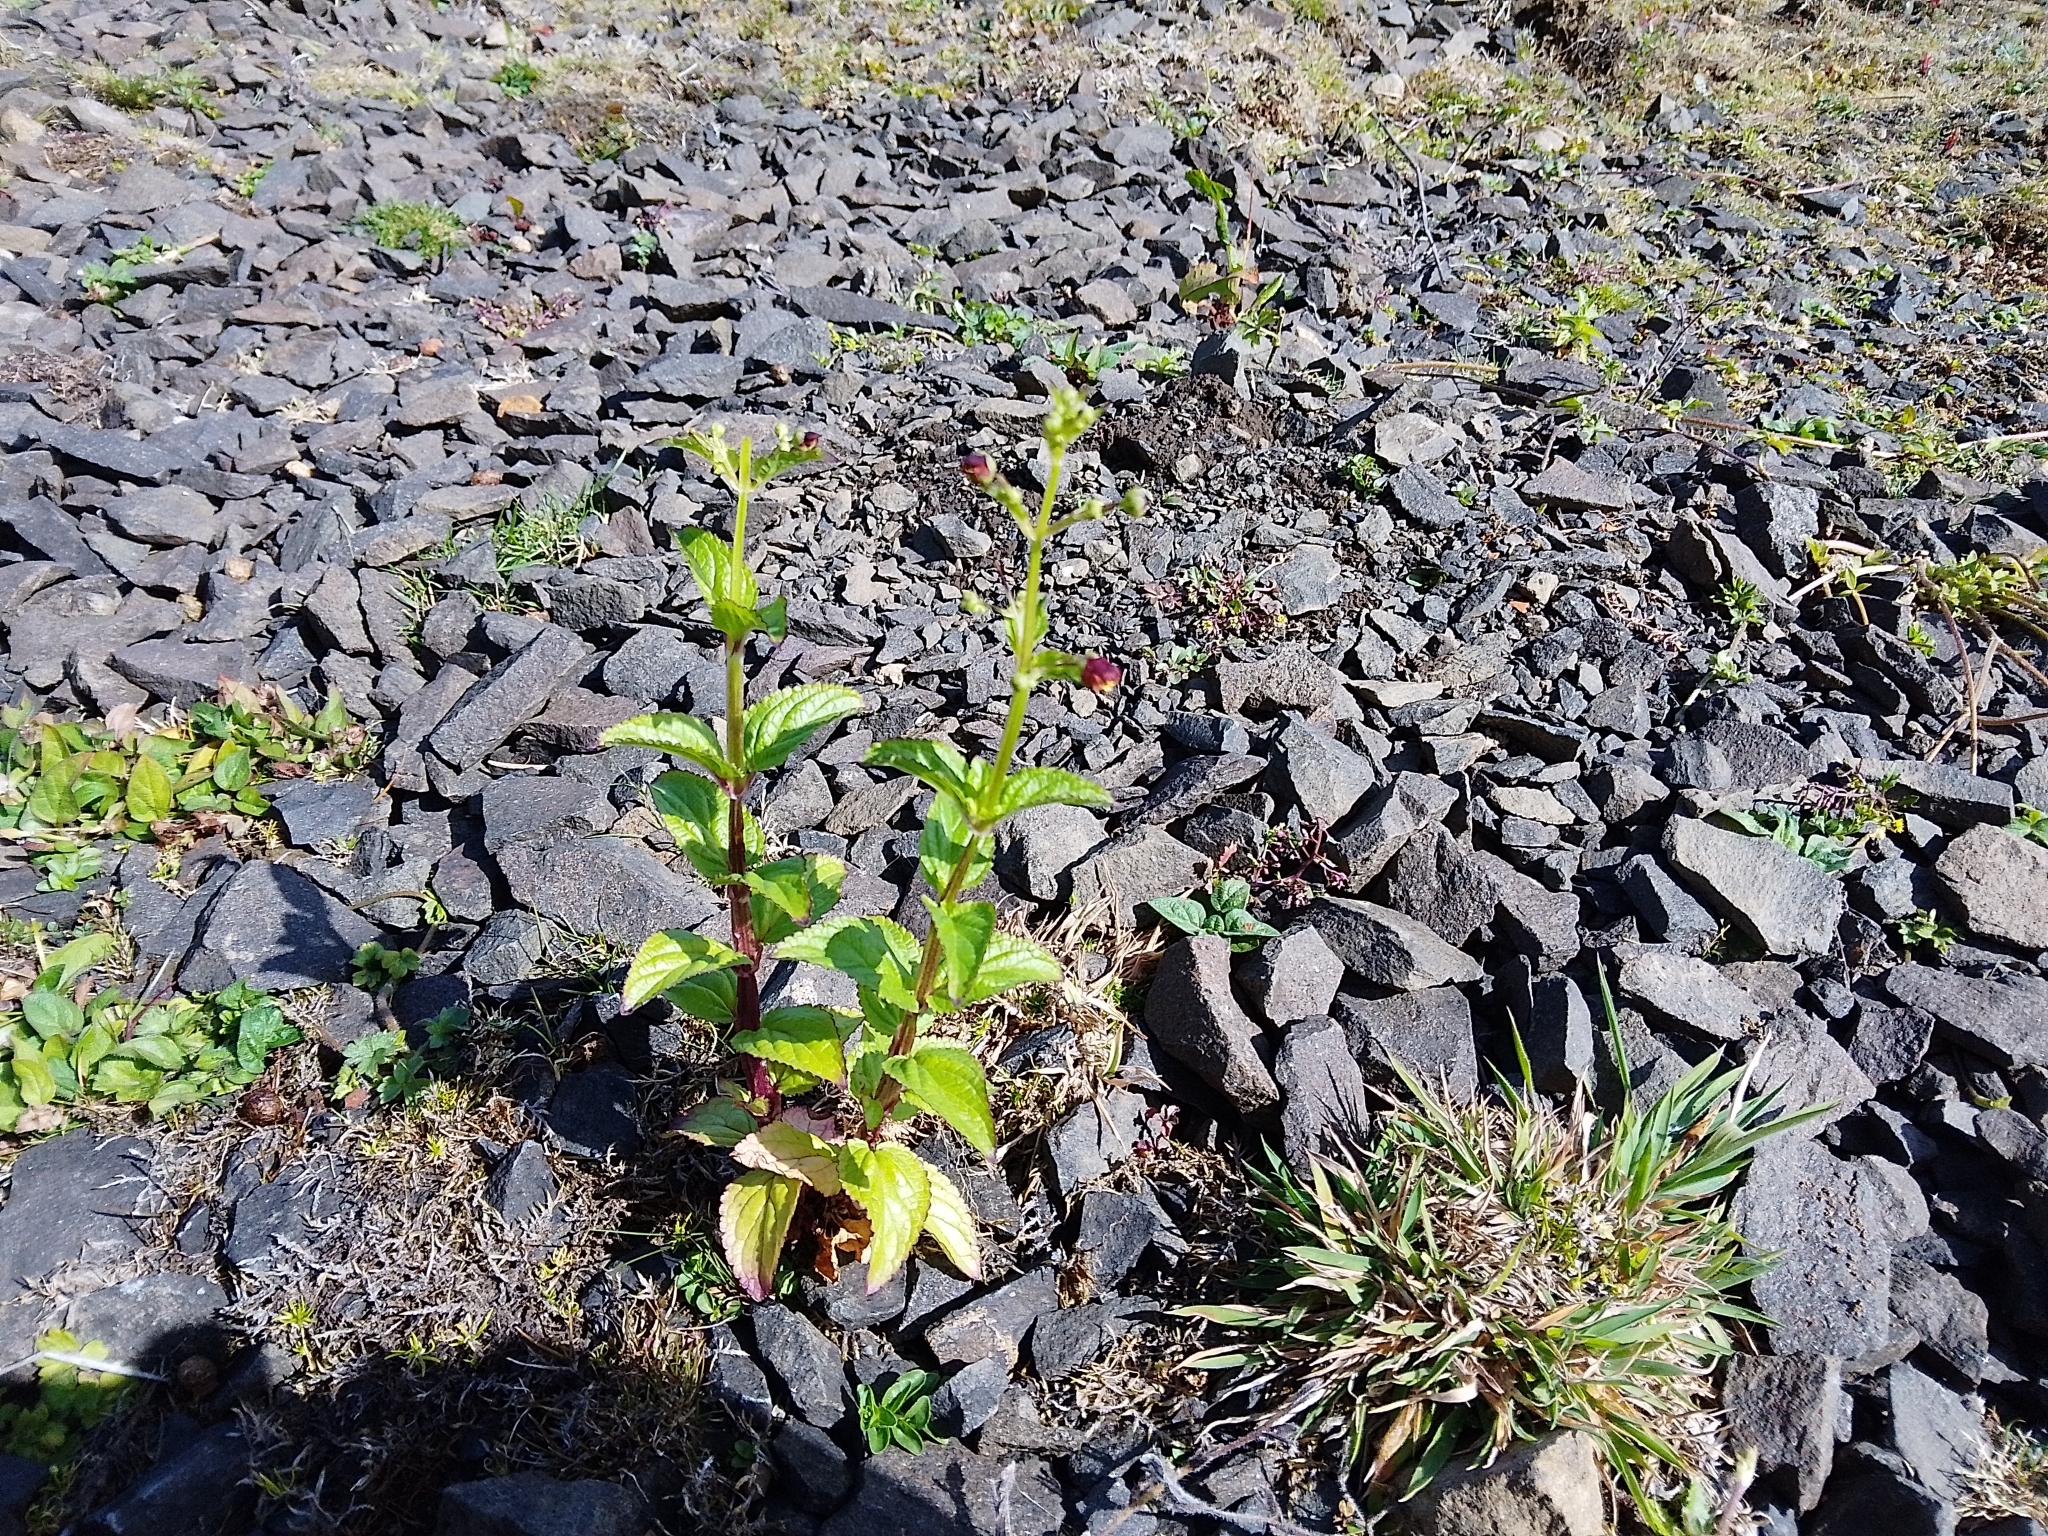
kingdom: Plantae
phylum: Tracheophyta
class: Magnoliopsida
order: Lamiales
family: Scrophulariaceae
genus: Scrophularia
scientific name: Scrophularia auriculata
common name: Water betony
